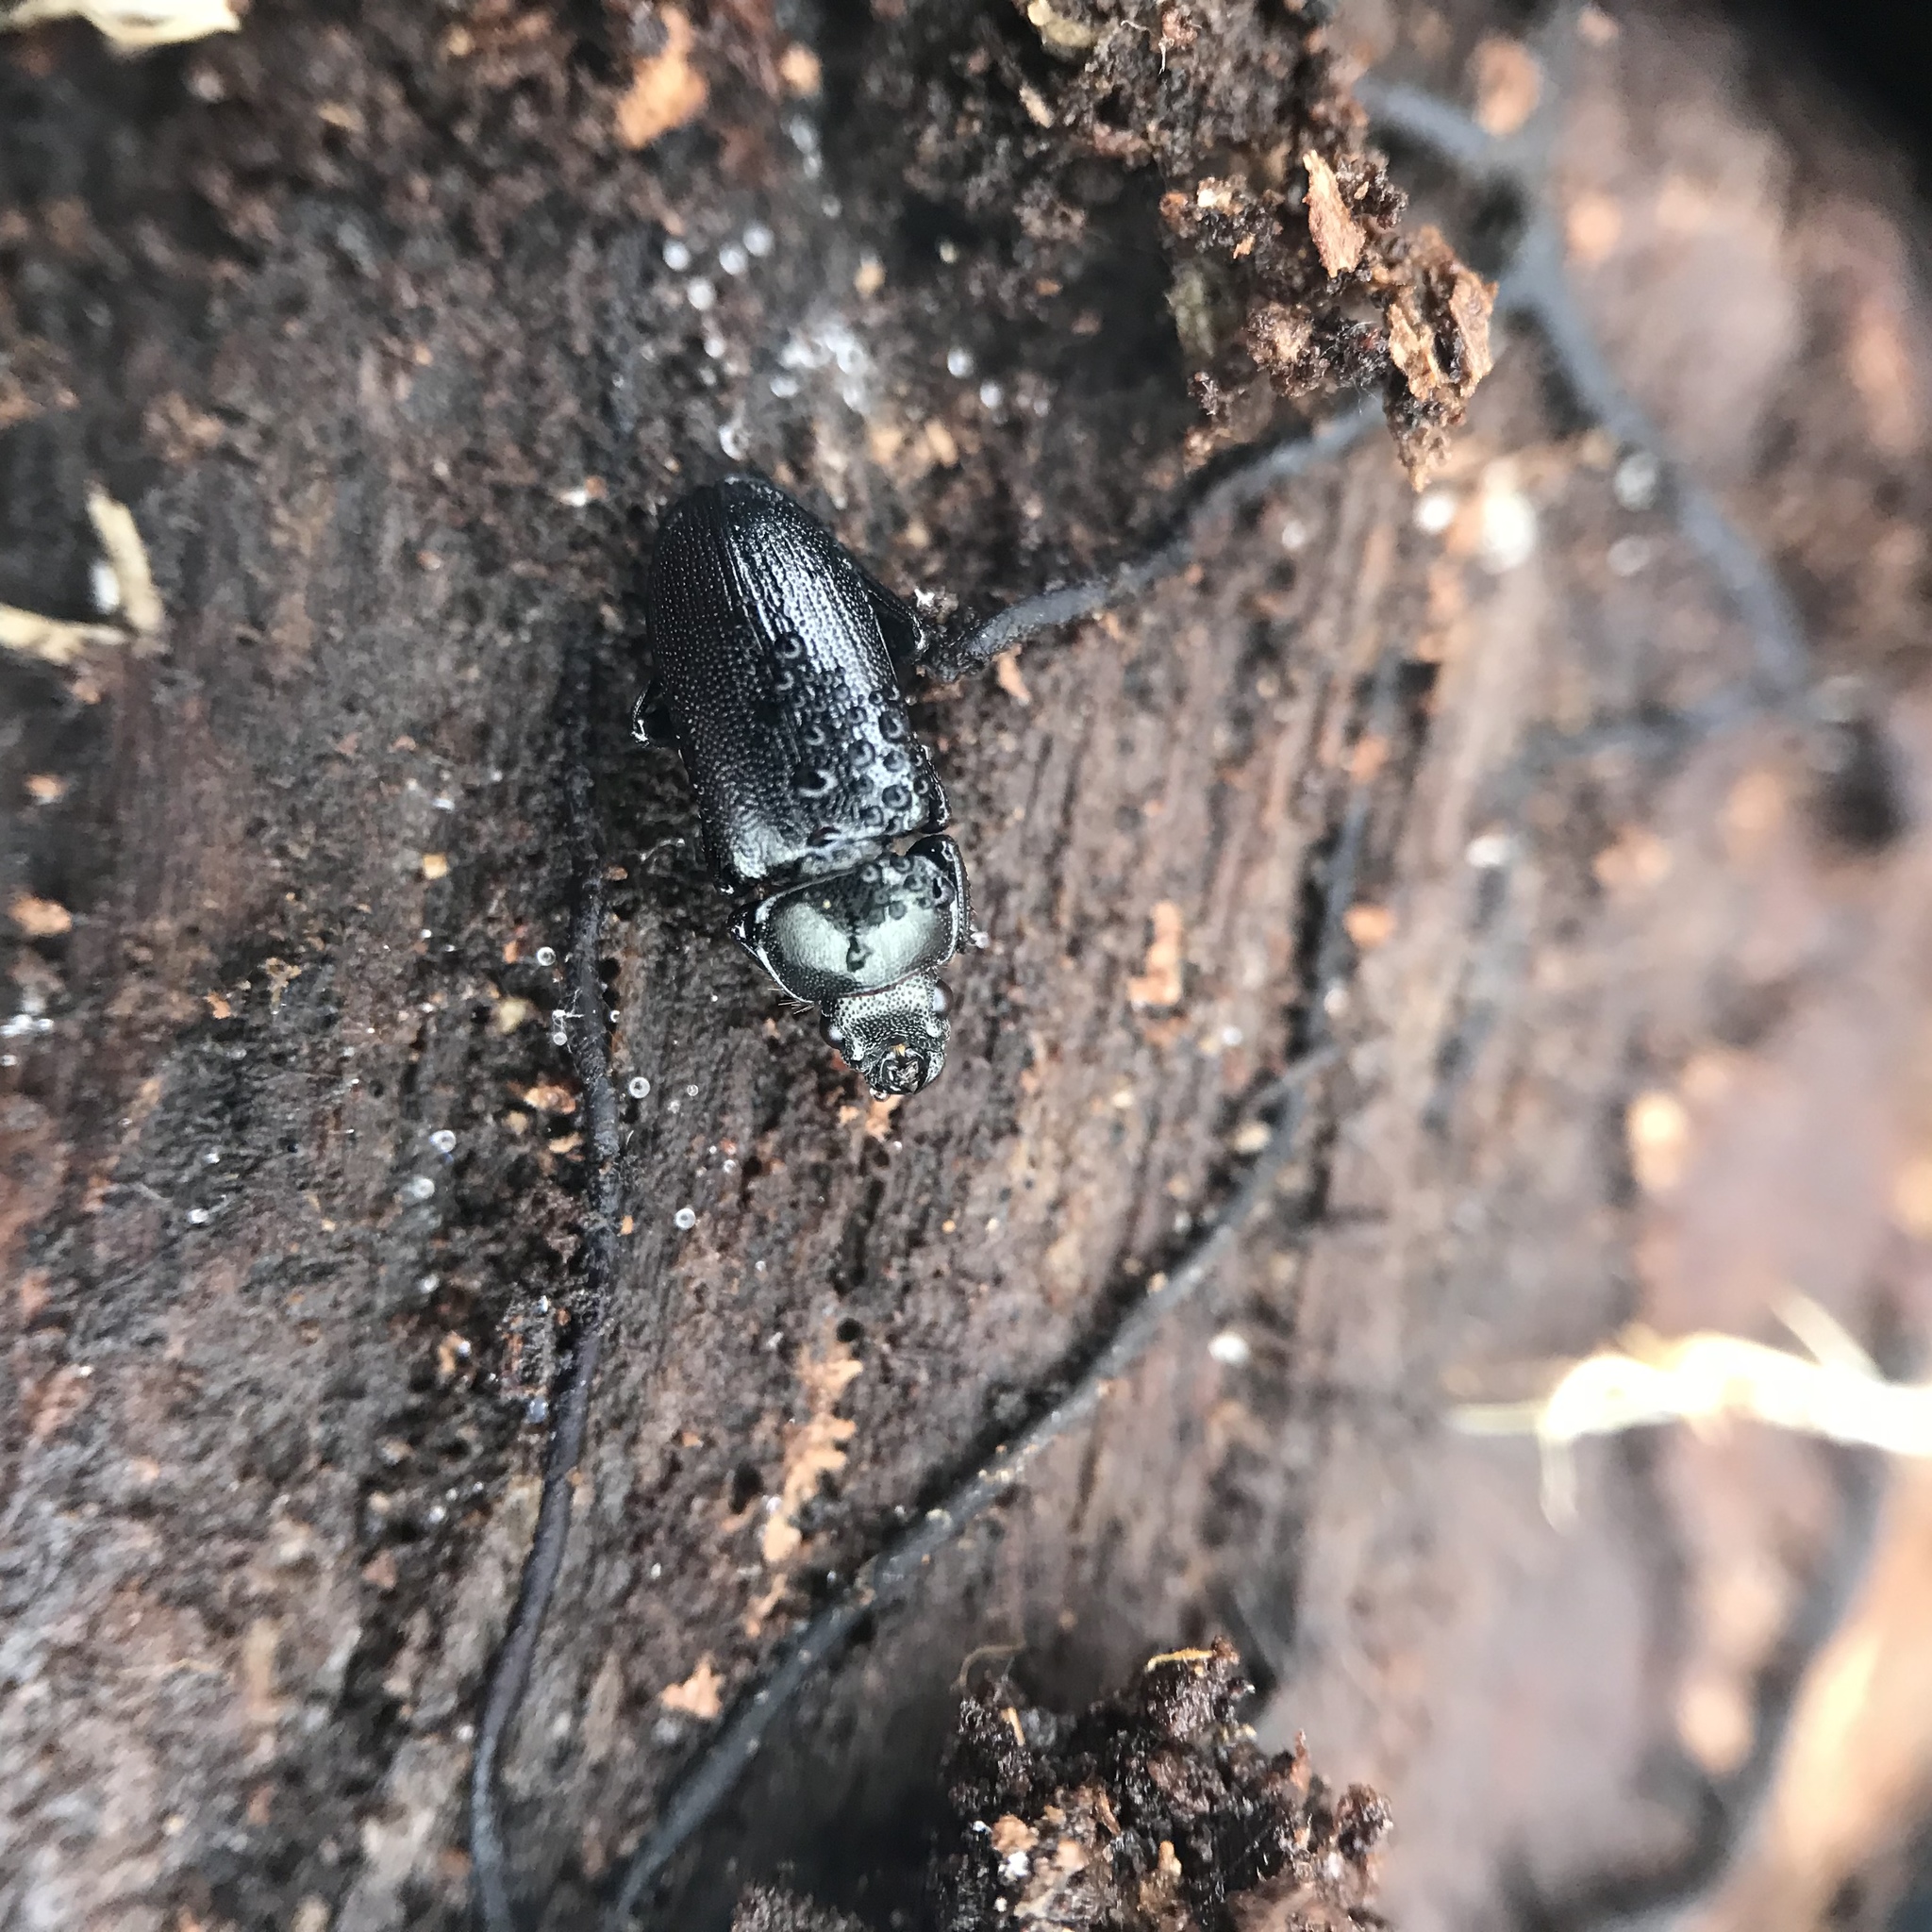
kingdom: Animalia
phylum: Arthropoda
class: Insecta
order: Coleoptera
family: Lucanidae
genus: Platycerus
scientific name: Platycerus quercus
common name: Oak stag beetle
